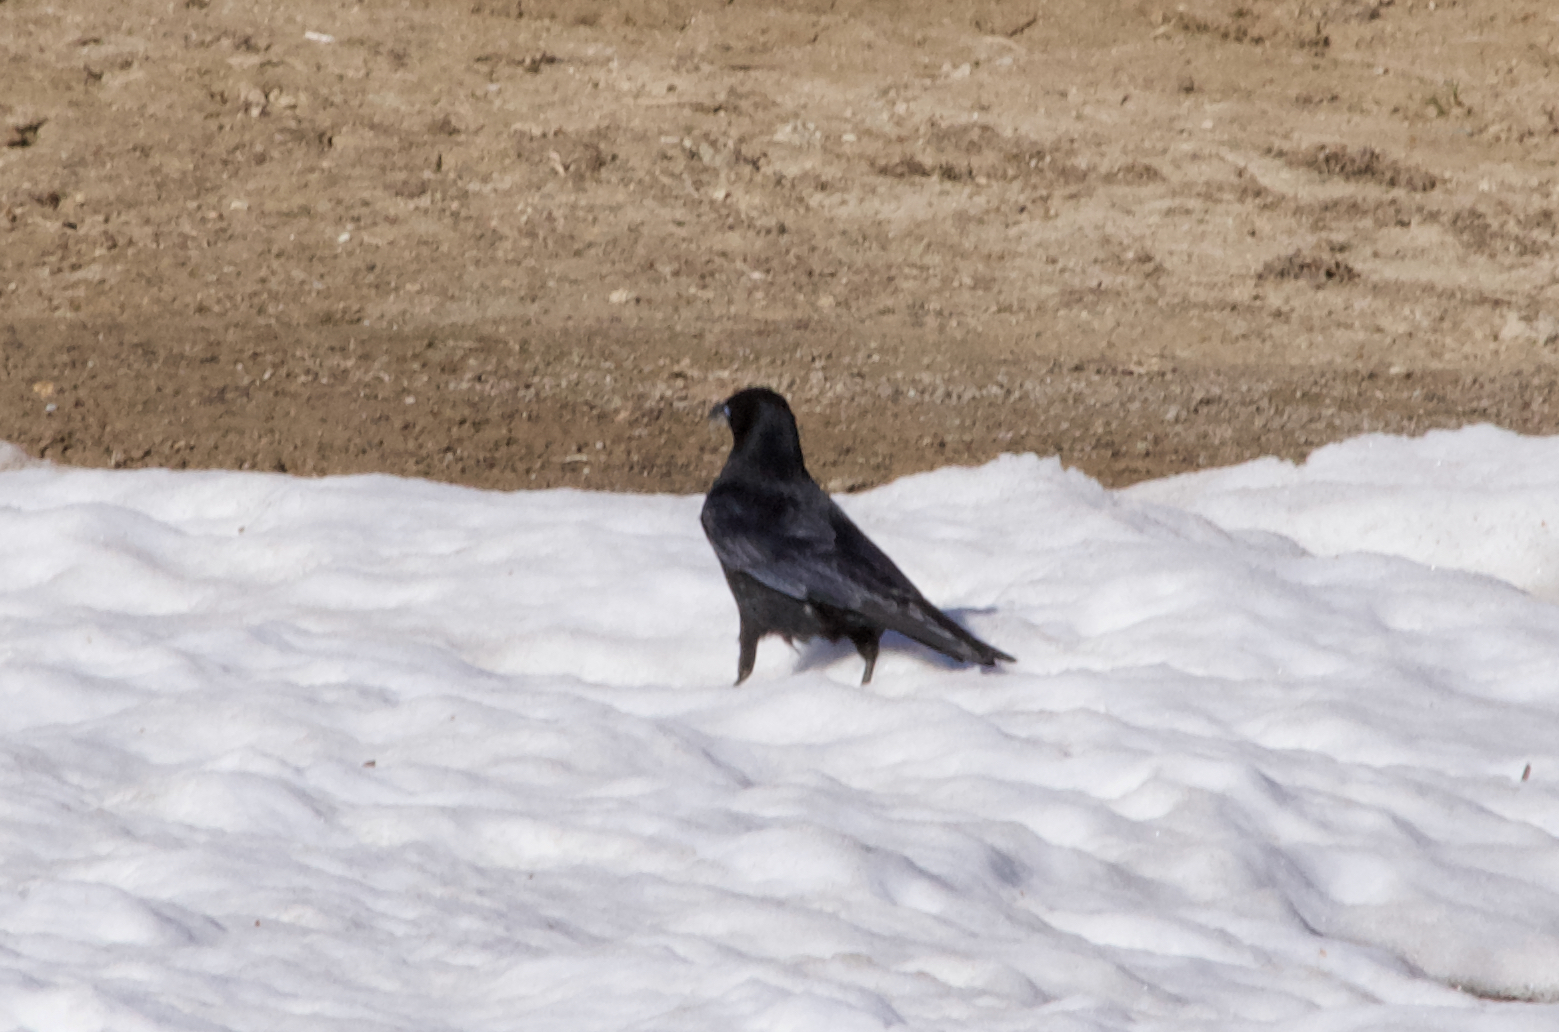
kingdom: Animalia
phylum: Chordata
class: Aves
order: Passeriformes
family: Corvidae
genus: Corvus
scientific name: Corvus corone
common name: Carrion crow
